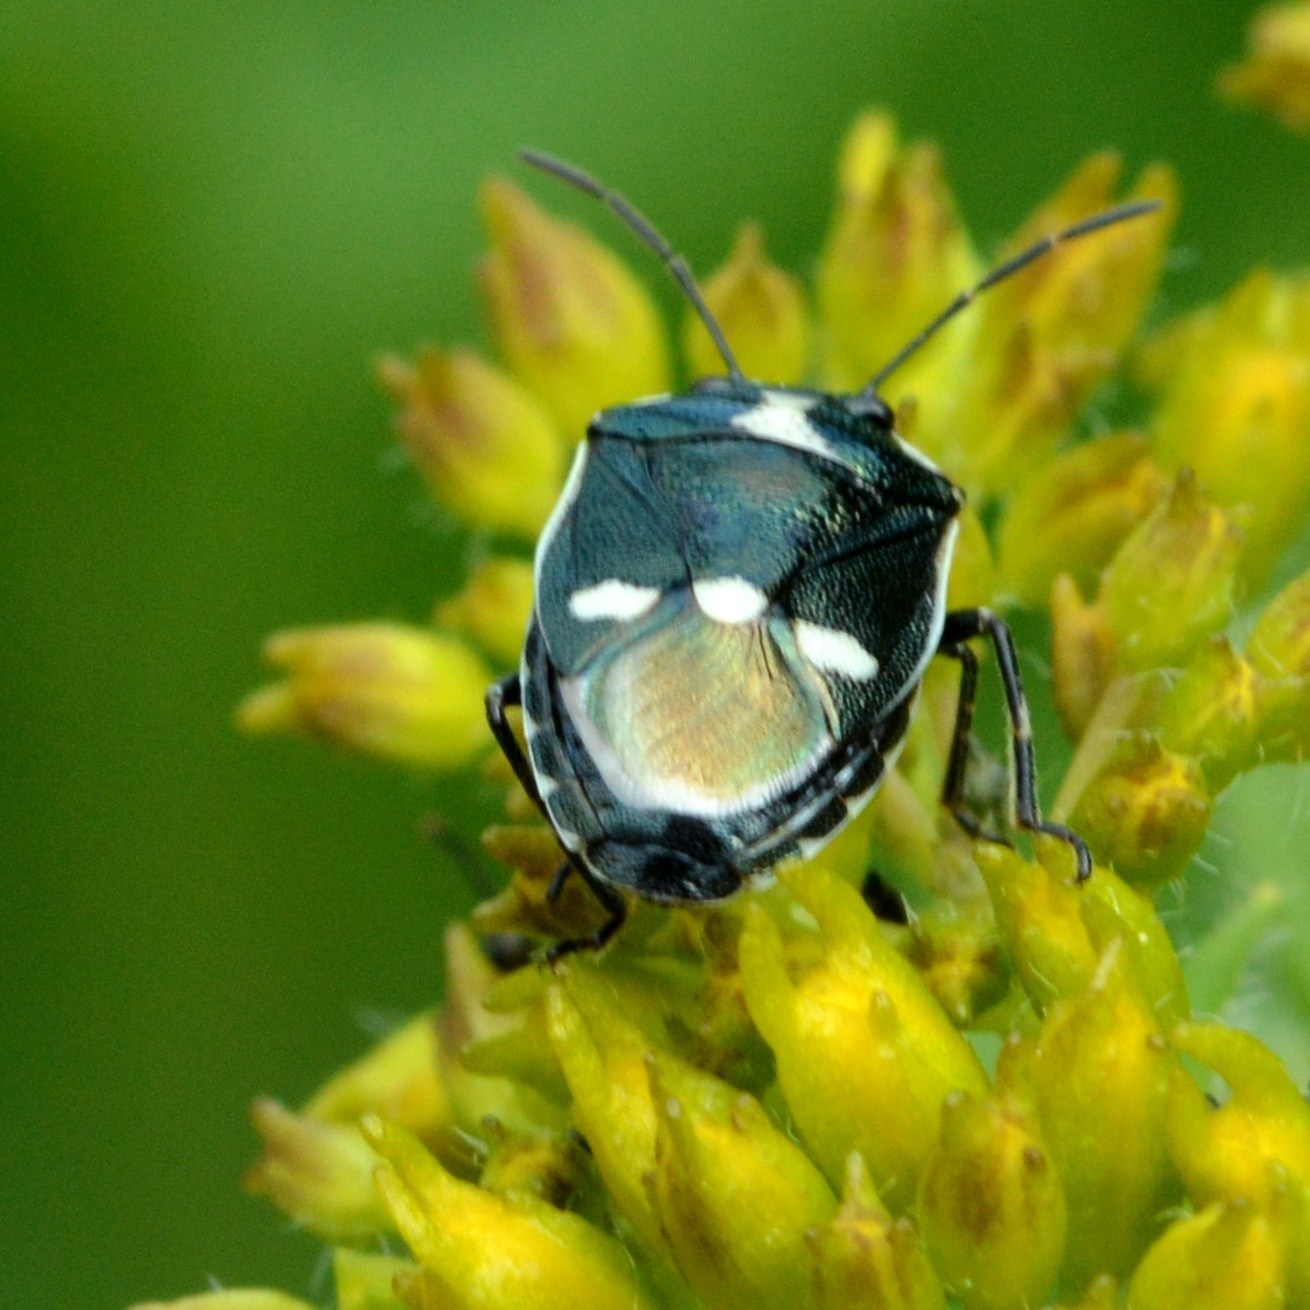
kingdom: Animalia
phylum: Arthropoda
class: Insecta
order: Hemiptera
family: Pentatomidae
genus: Eurydema
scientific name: Eurydema oleracea
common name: Cabbage bug
